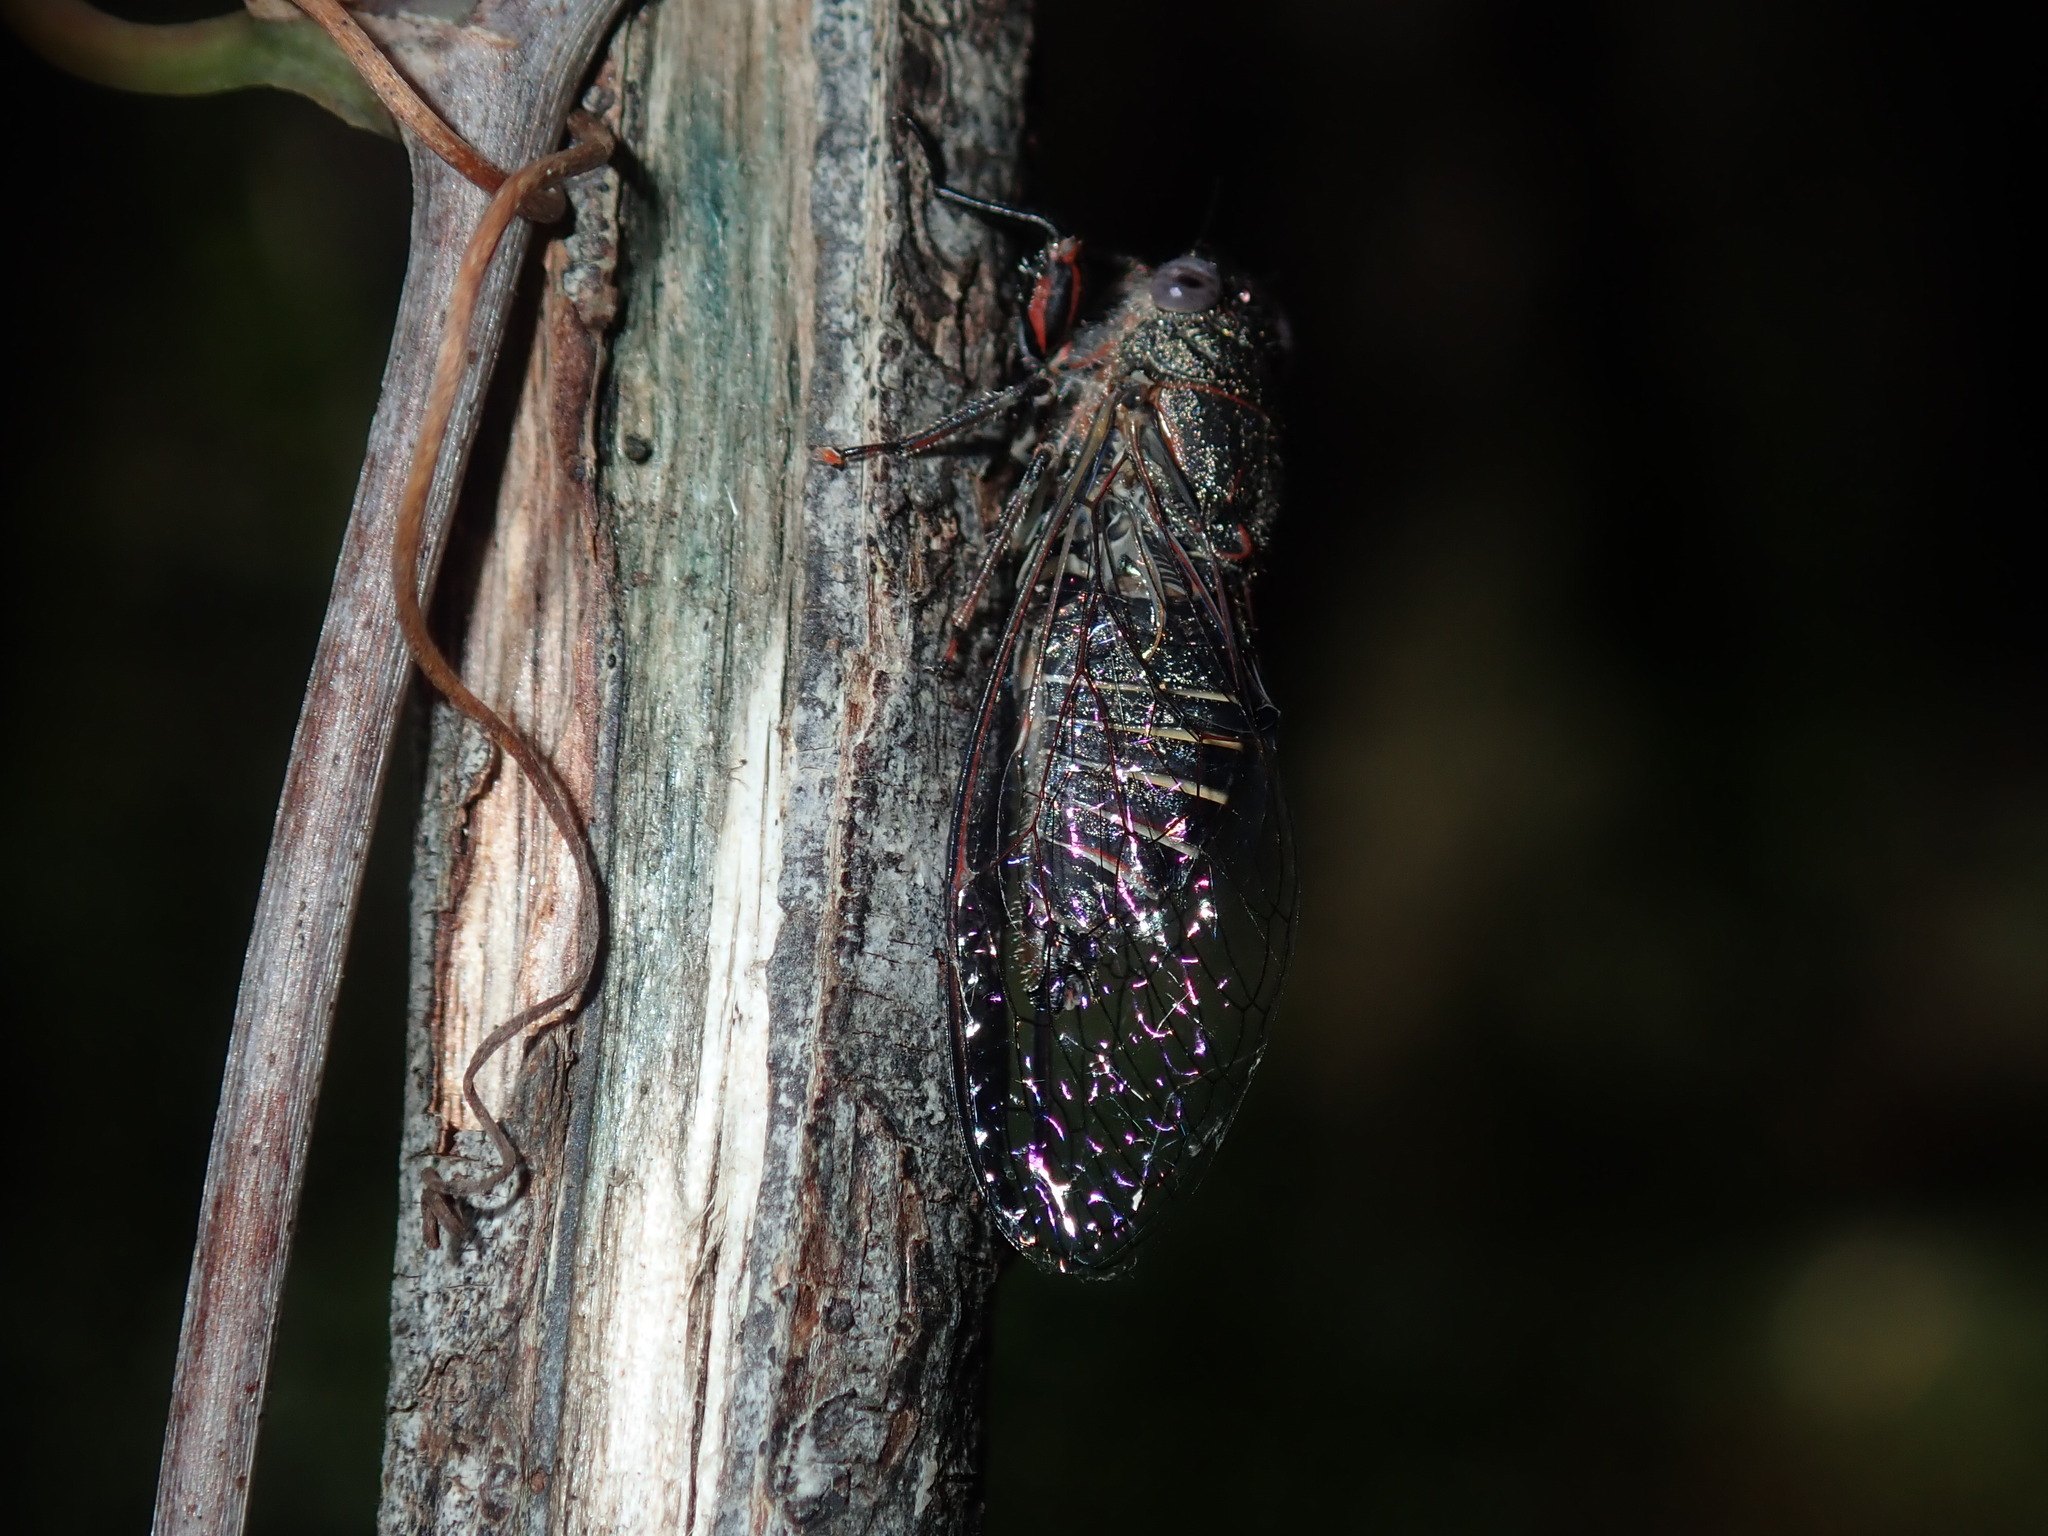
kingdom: Animalia
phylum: Arthropoda
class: Insecta
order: Hemiptera
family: Cicadidae
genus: Atrapsalta
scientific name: Atrapsalta fuscata
